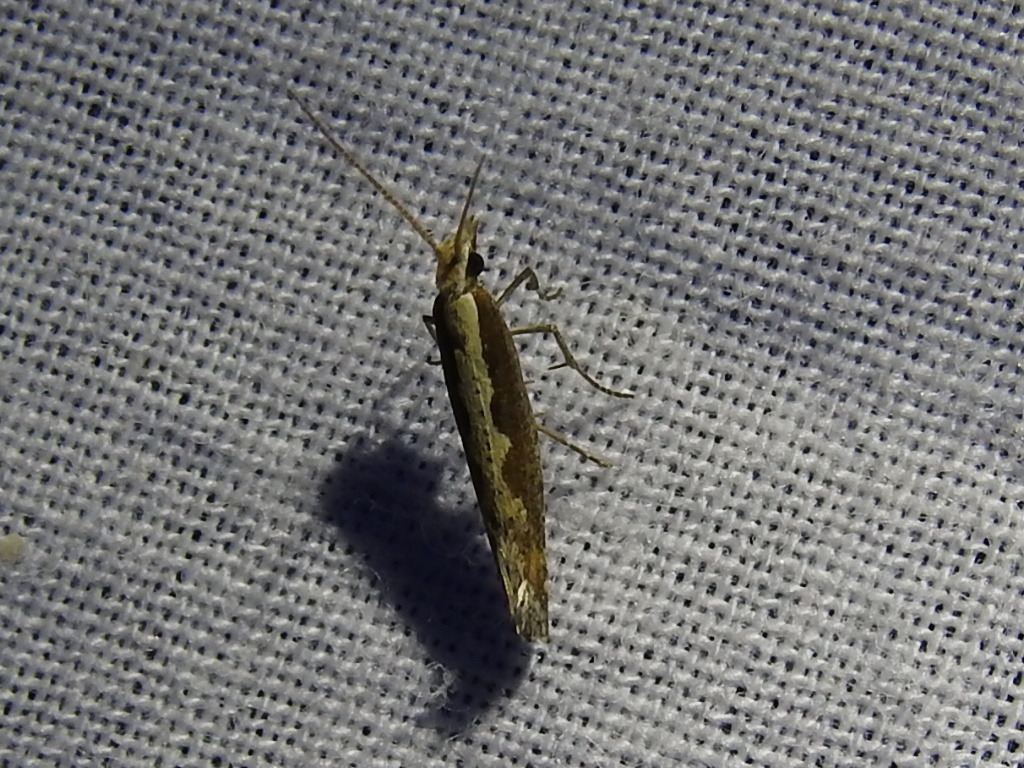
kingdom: Animalia
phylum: Arthropoda
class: Insecta
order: Lepidoptera
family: Plutellidae
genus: Plutella
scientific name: Plutella xylostella
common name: Diamond-back moth
